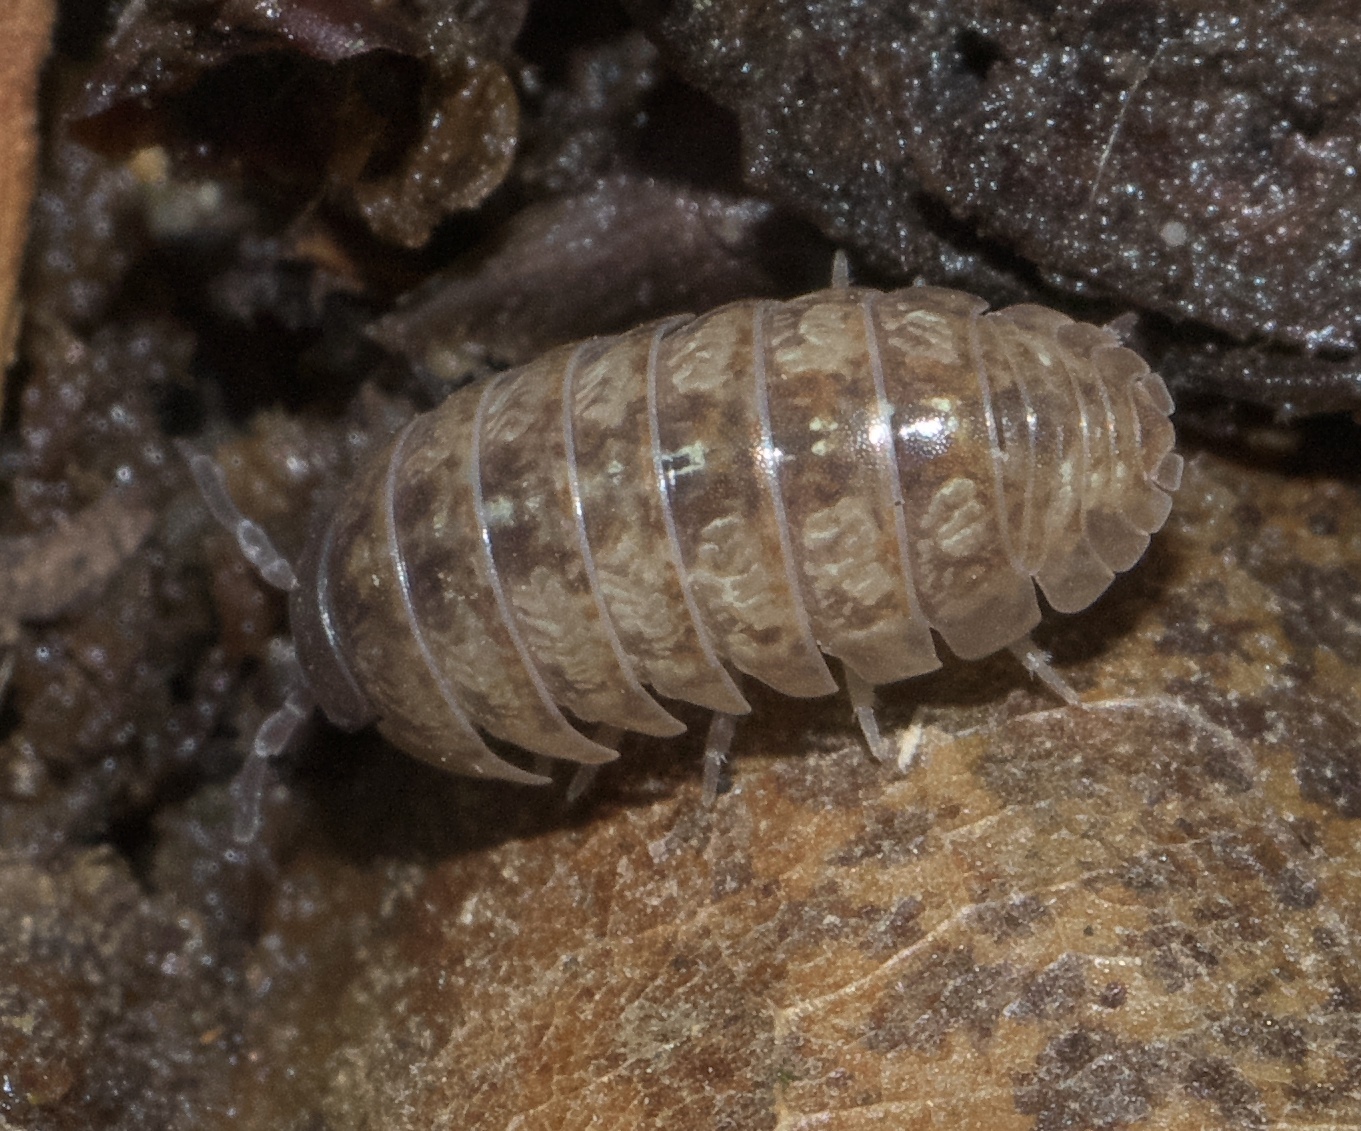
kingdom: Animalia
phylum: Arthropoda
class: Malacostraca
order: Isopoda
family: Armadillidiidae
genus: Armadillidium
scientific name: Armadillidium vulgare
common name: Common pill woodlouse
